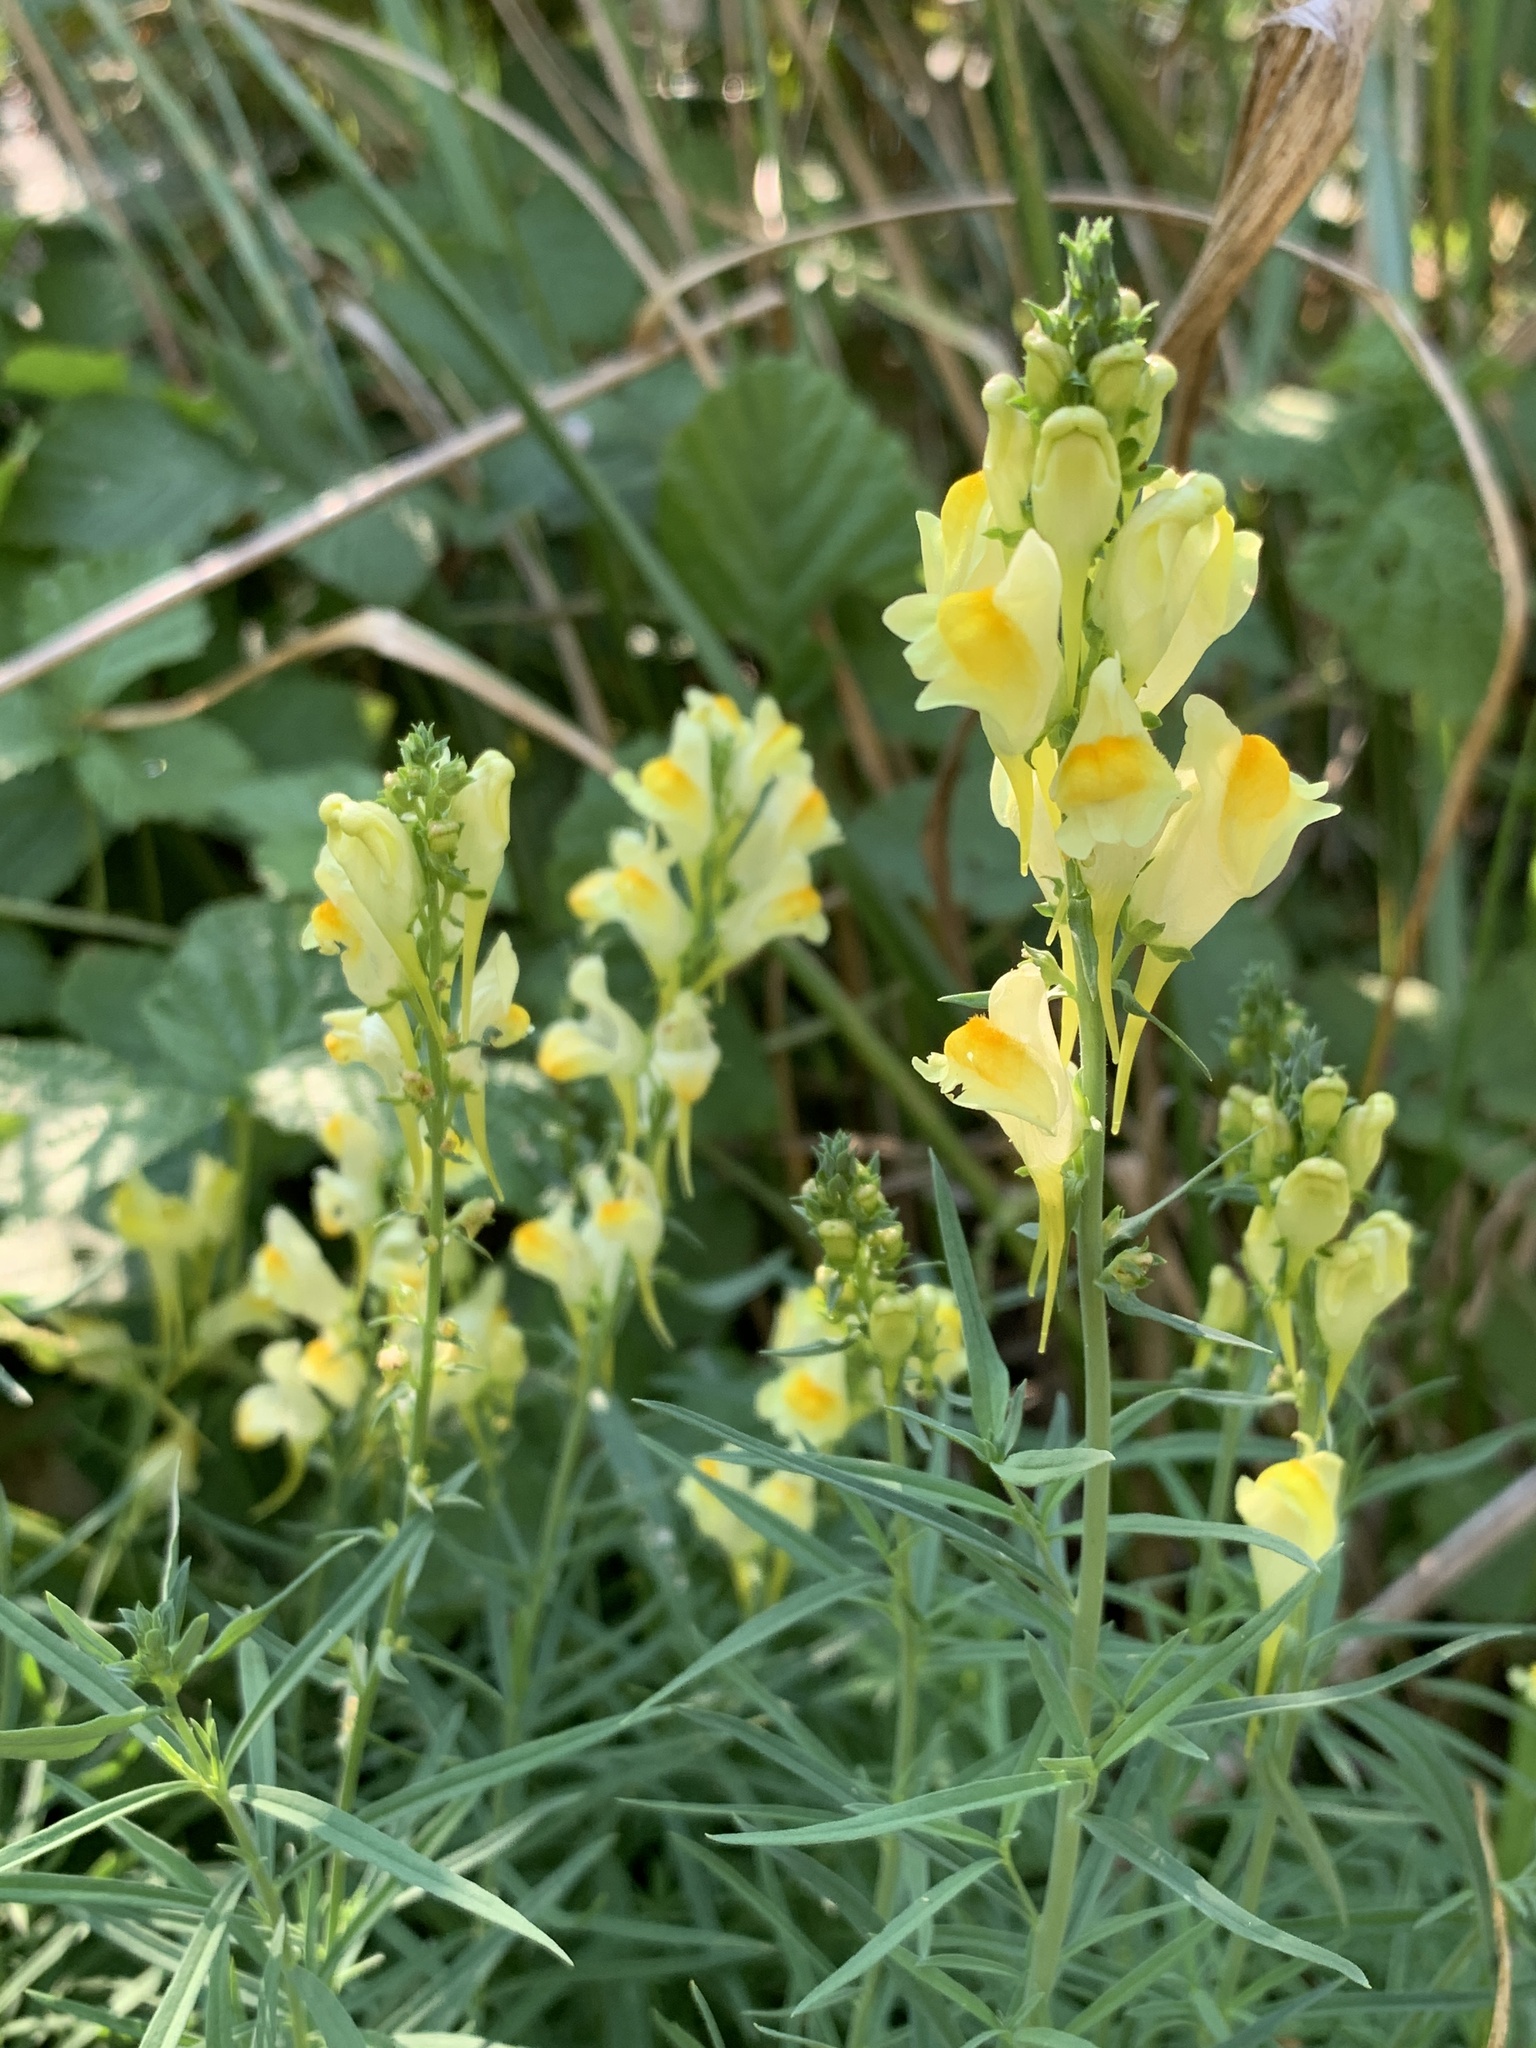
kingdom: Plantae
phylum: Tracheophyta
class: Magnoliopsida
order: Lamiales
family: Plantaginaceae
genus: Linaria
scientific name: Linaria vulgaris
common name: Butter and eggs
